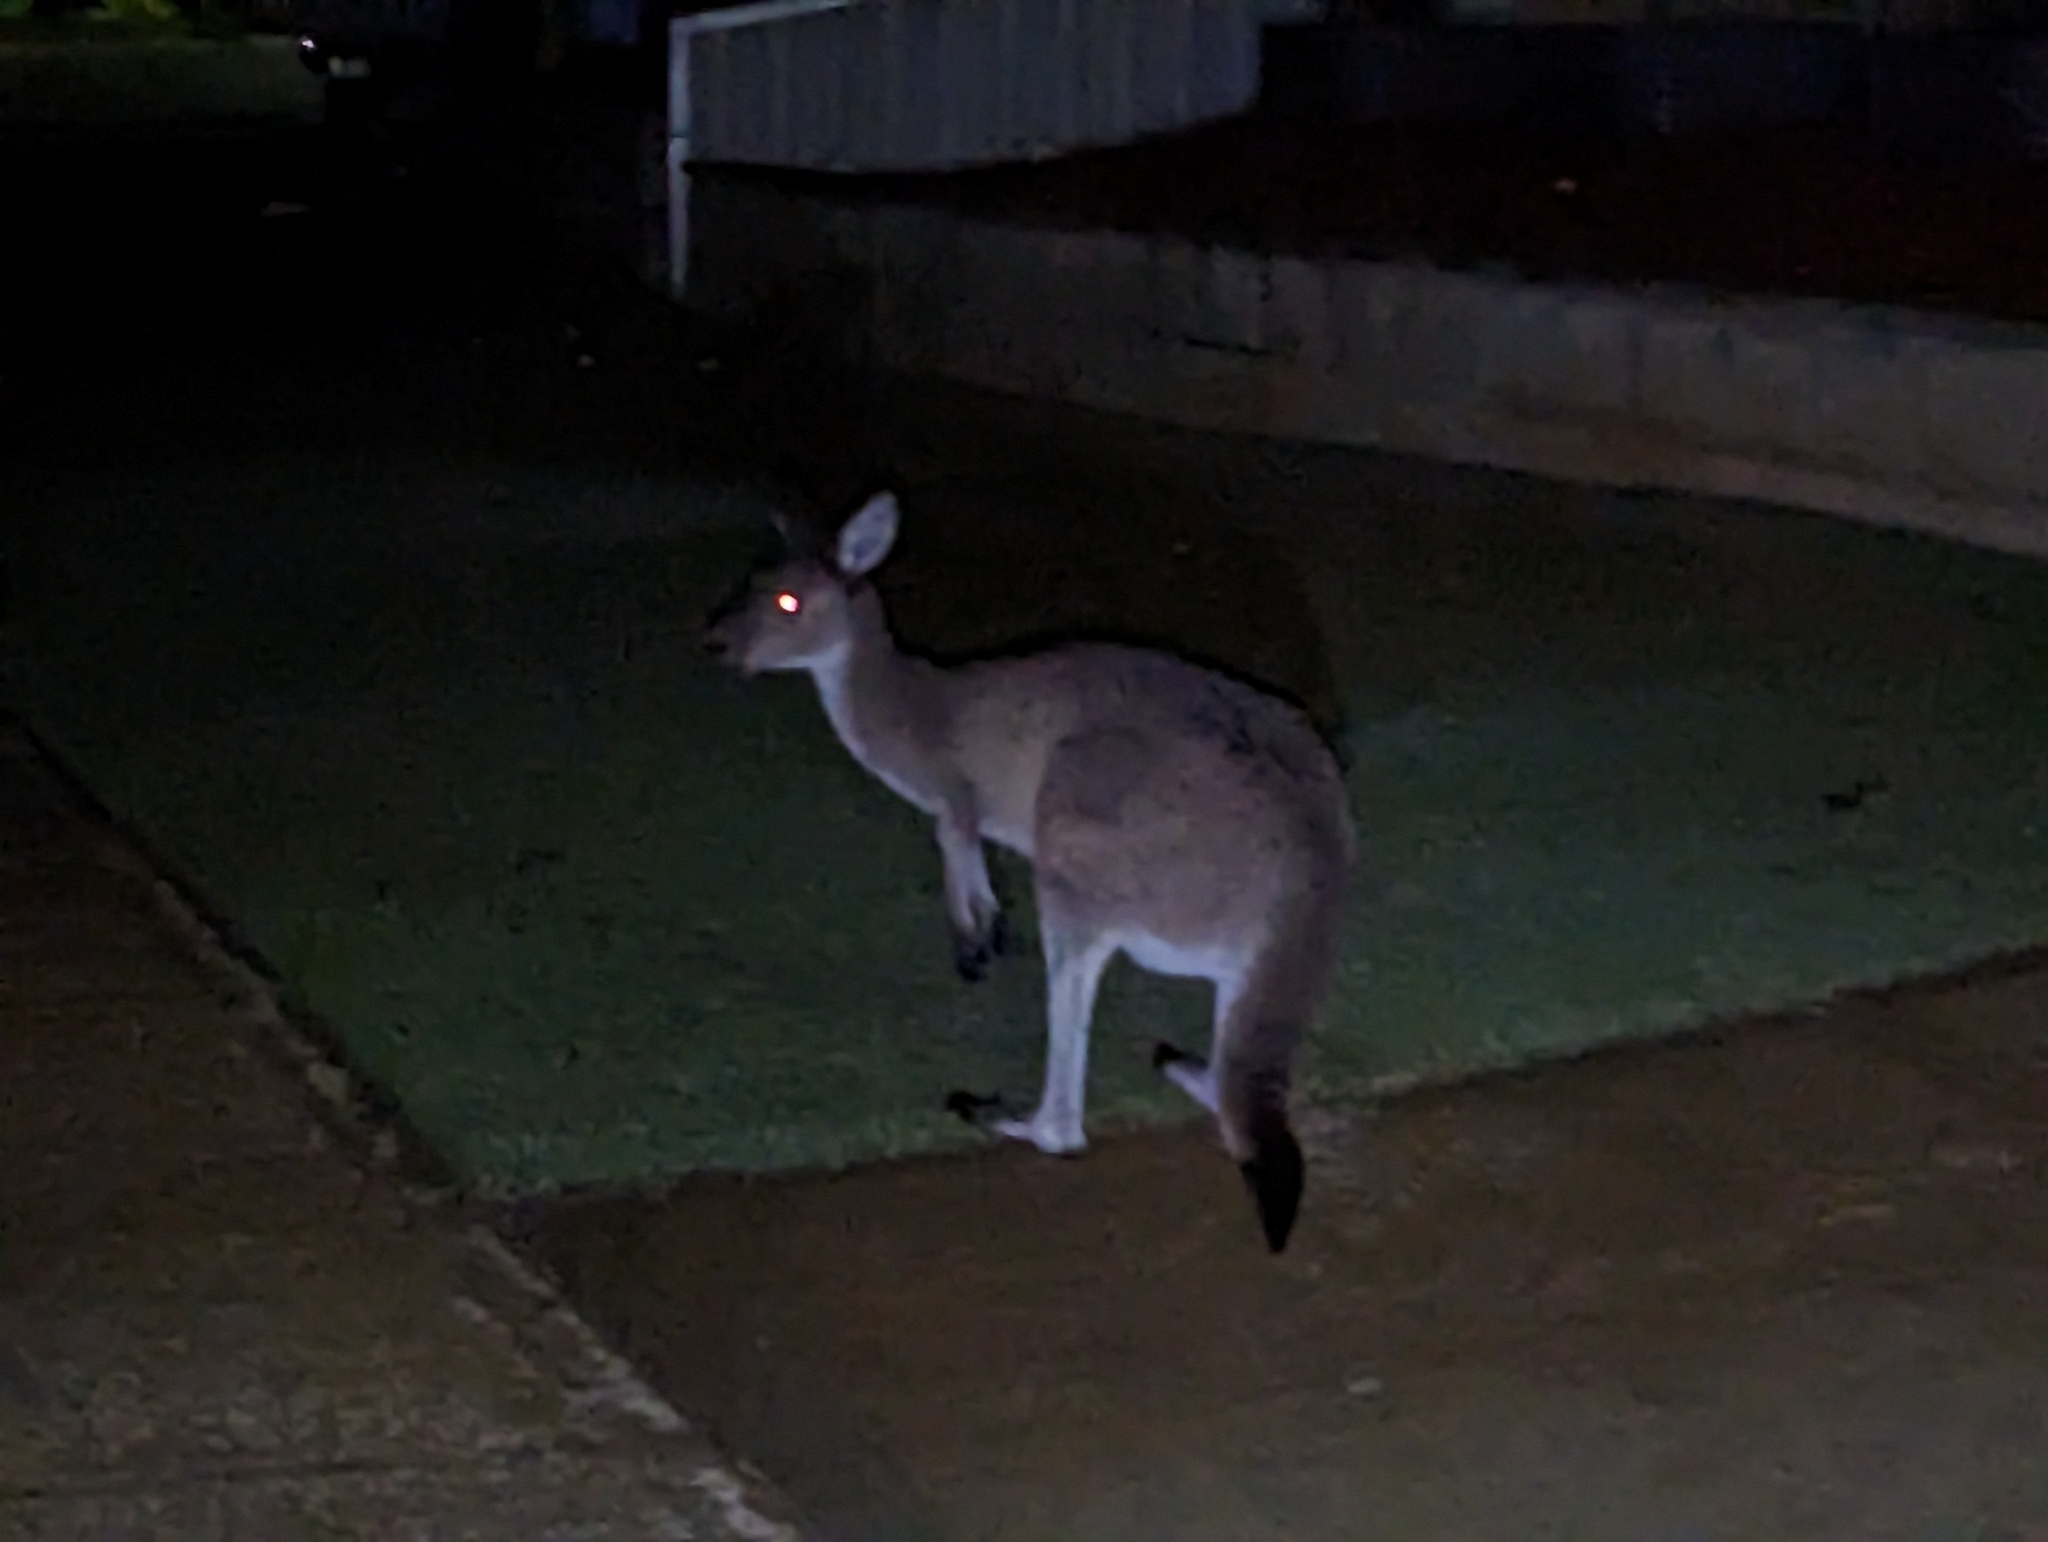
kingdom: Animalia
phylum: Chordata
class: Mammalia
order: Diprotodontia
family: Macropodidae
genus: Macropus
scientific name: Macropus fuliginosus
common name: Western grey kangaroo
